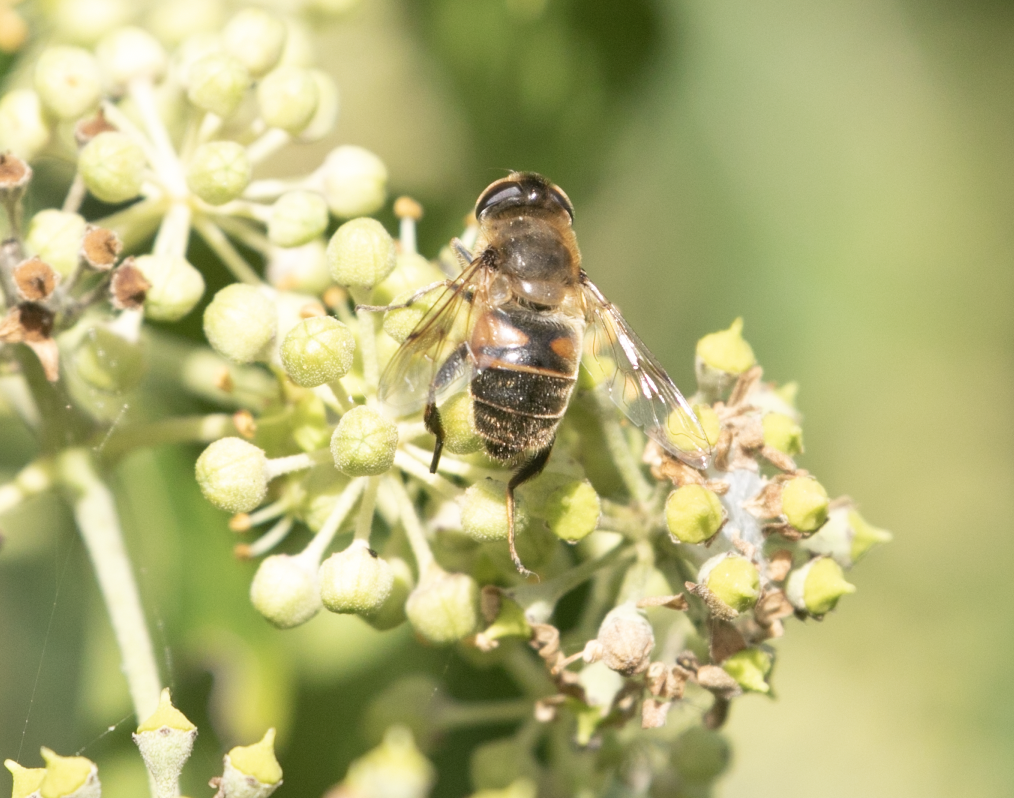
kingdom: Animalia
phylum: Arthropoda
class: Insecta
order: Diptera
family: Syrphidae
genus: Eristalis
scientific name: Eristalis tenax
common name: Drone fly
